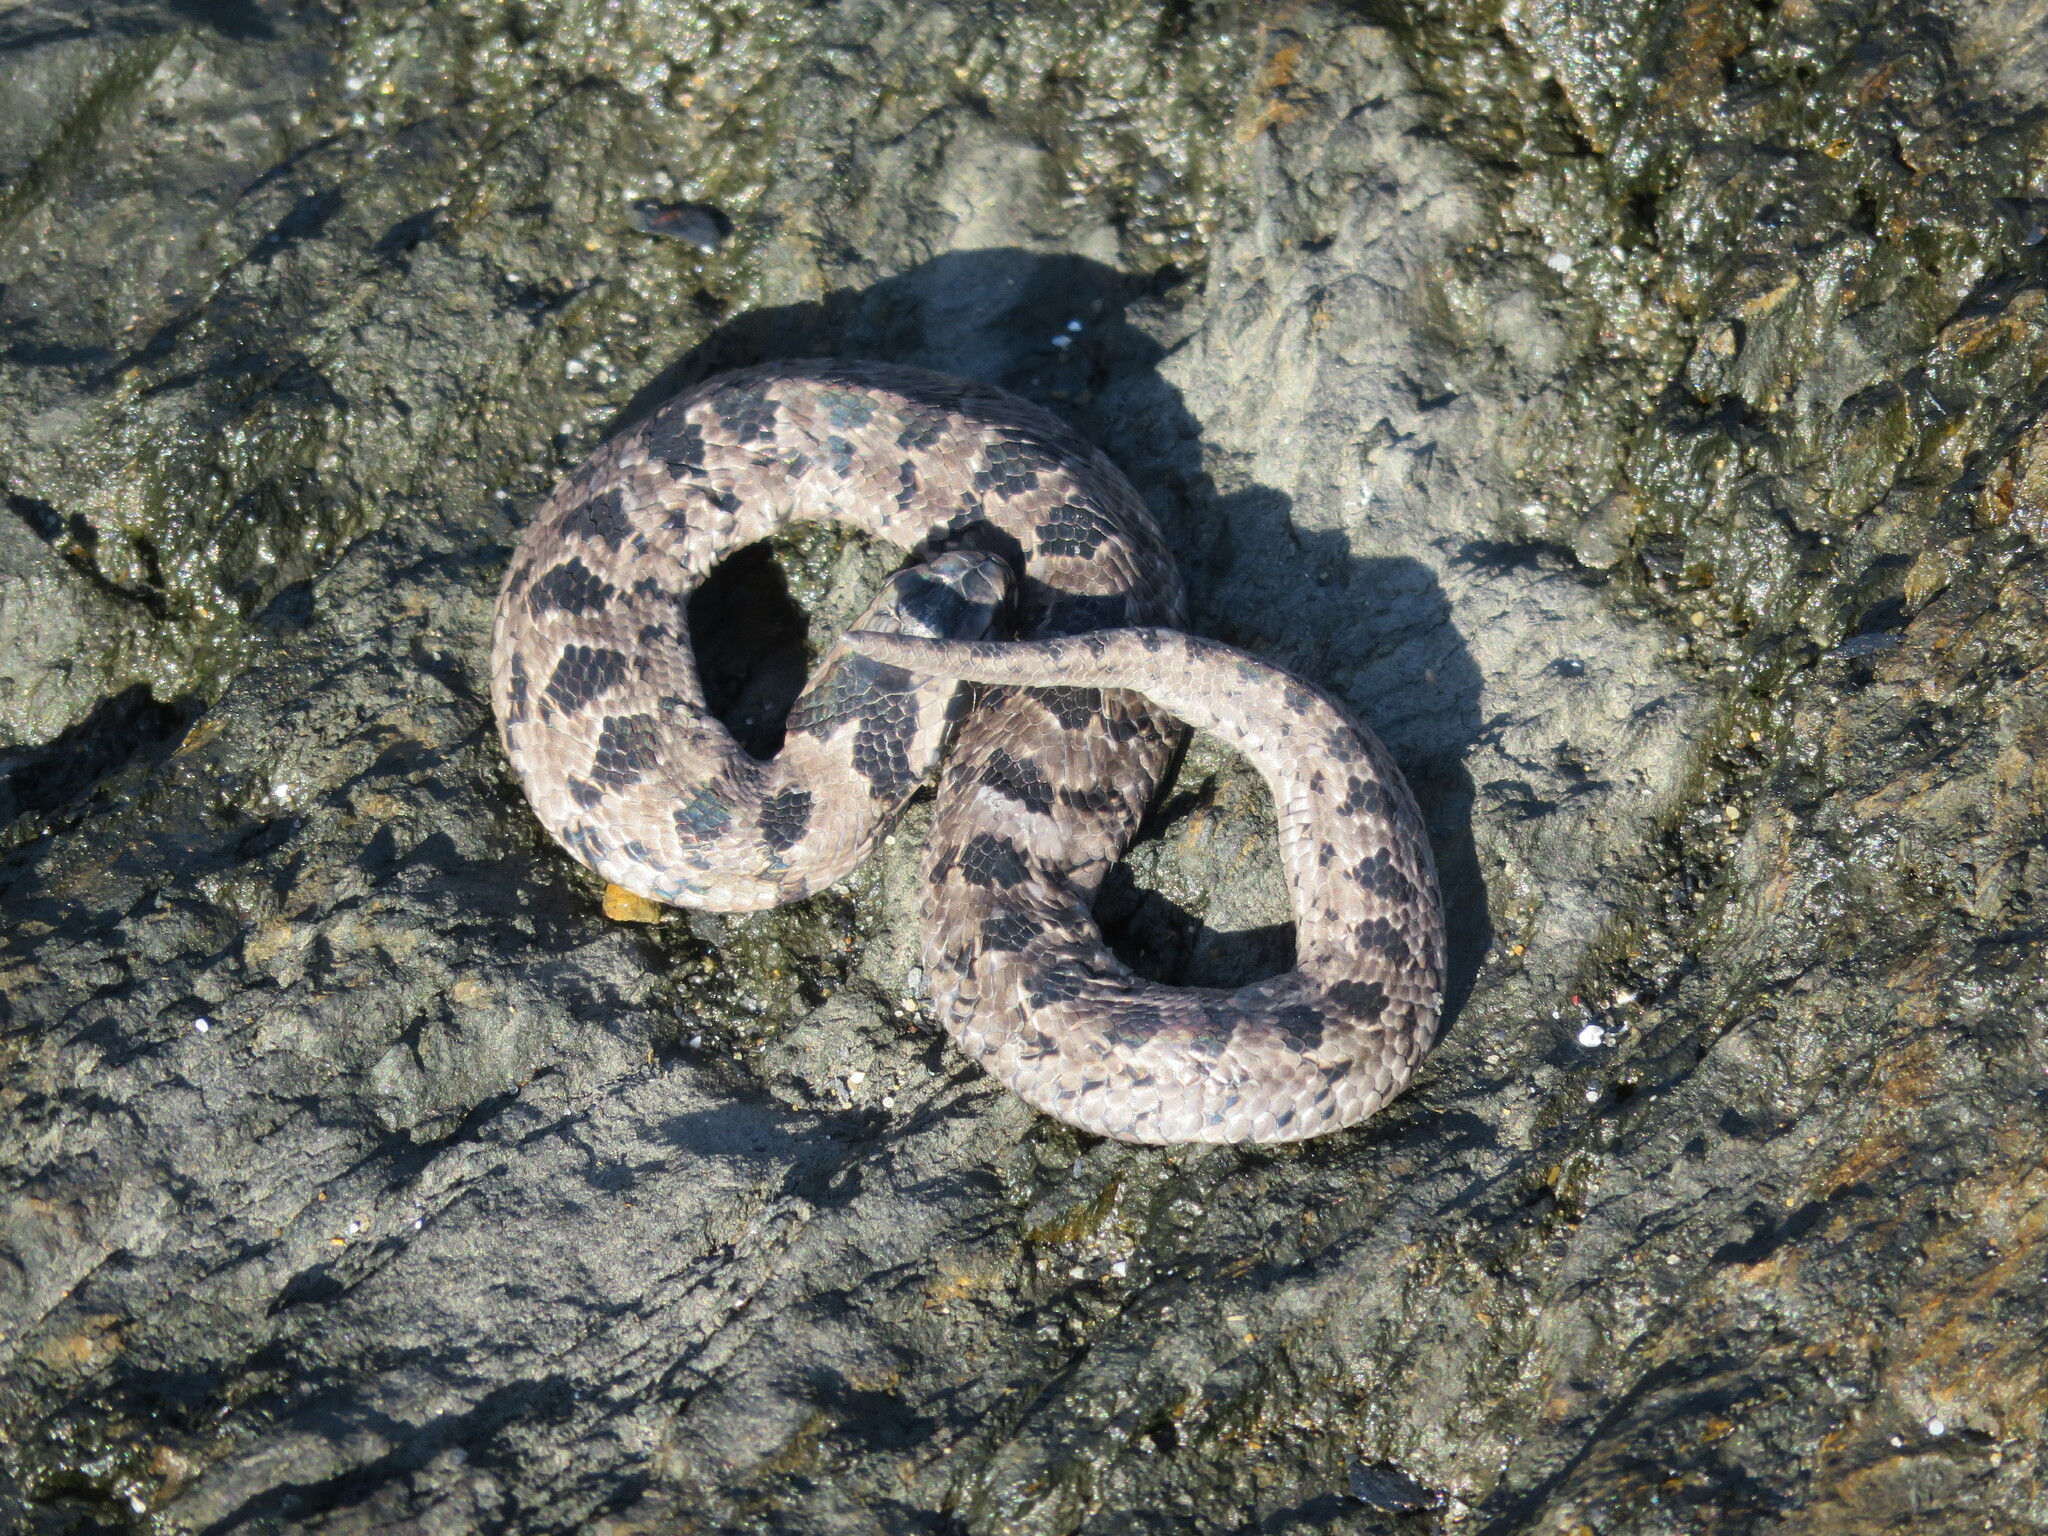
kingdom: Animalia
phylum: Chordata
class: Squamata
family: Viperidae
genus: Causus
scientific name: Causus rhombeatus
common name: Common night adder
